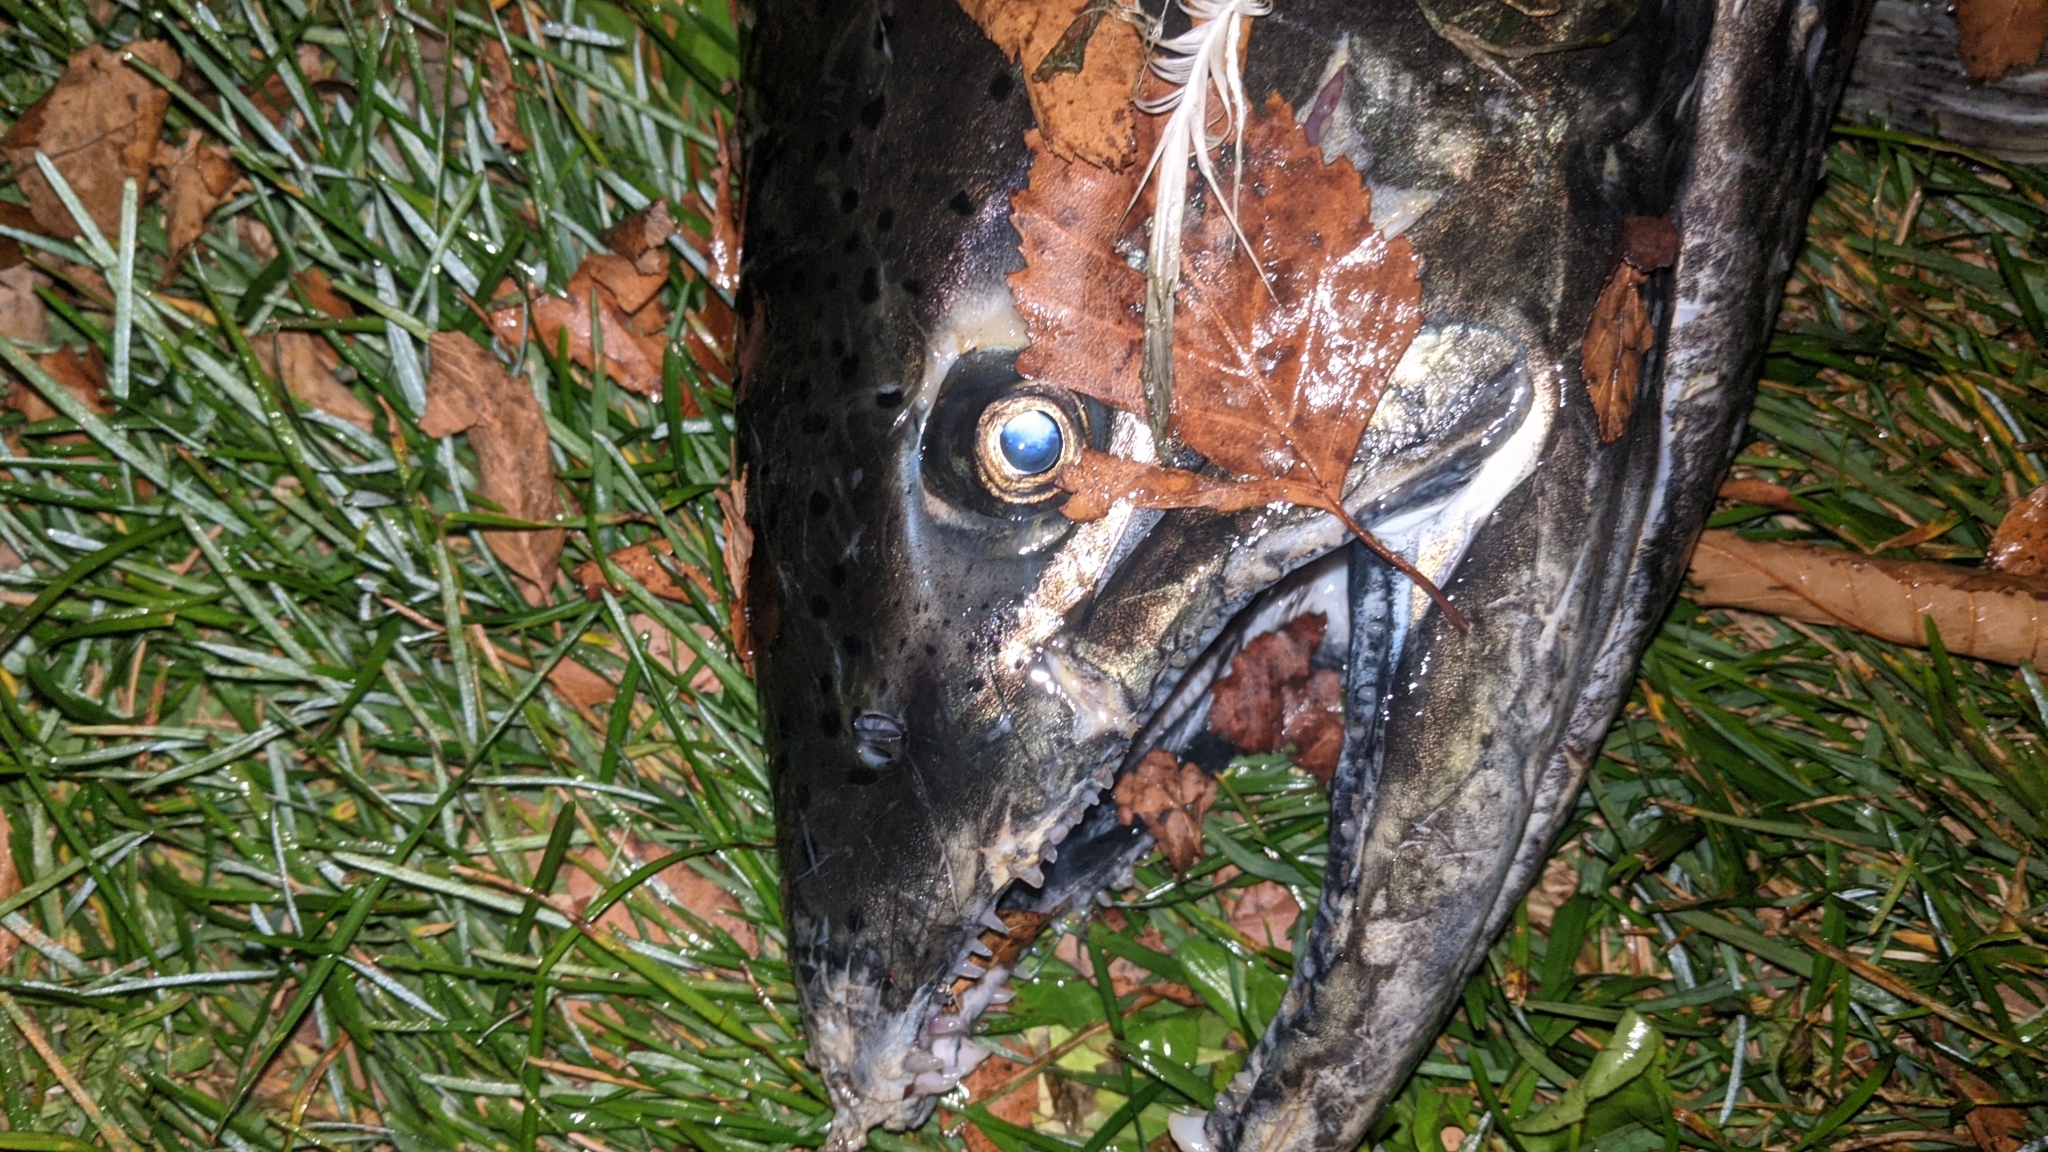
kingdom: Animalia
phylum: Chordata
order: Salmoniformes
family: Salmonidae
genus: Oncorhynchus
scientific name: Oncorhynchus tshawytscha
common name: Chinook salmon
